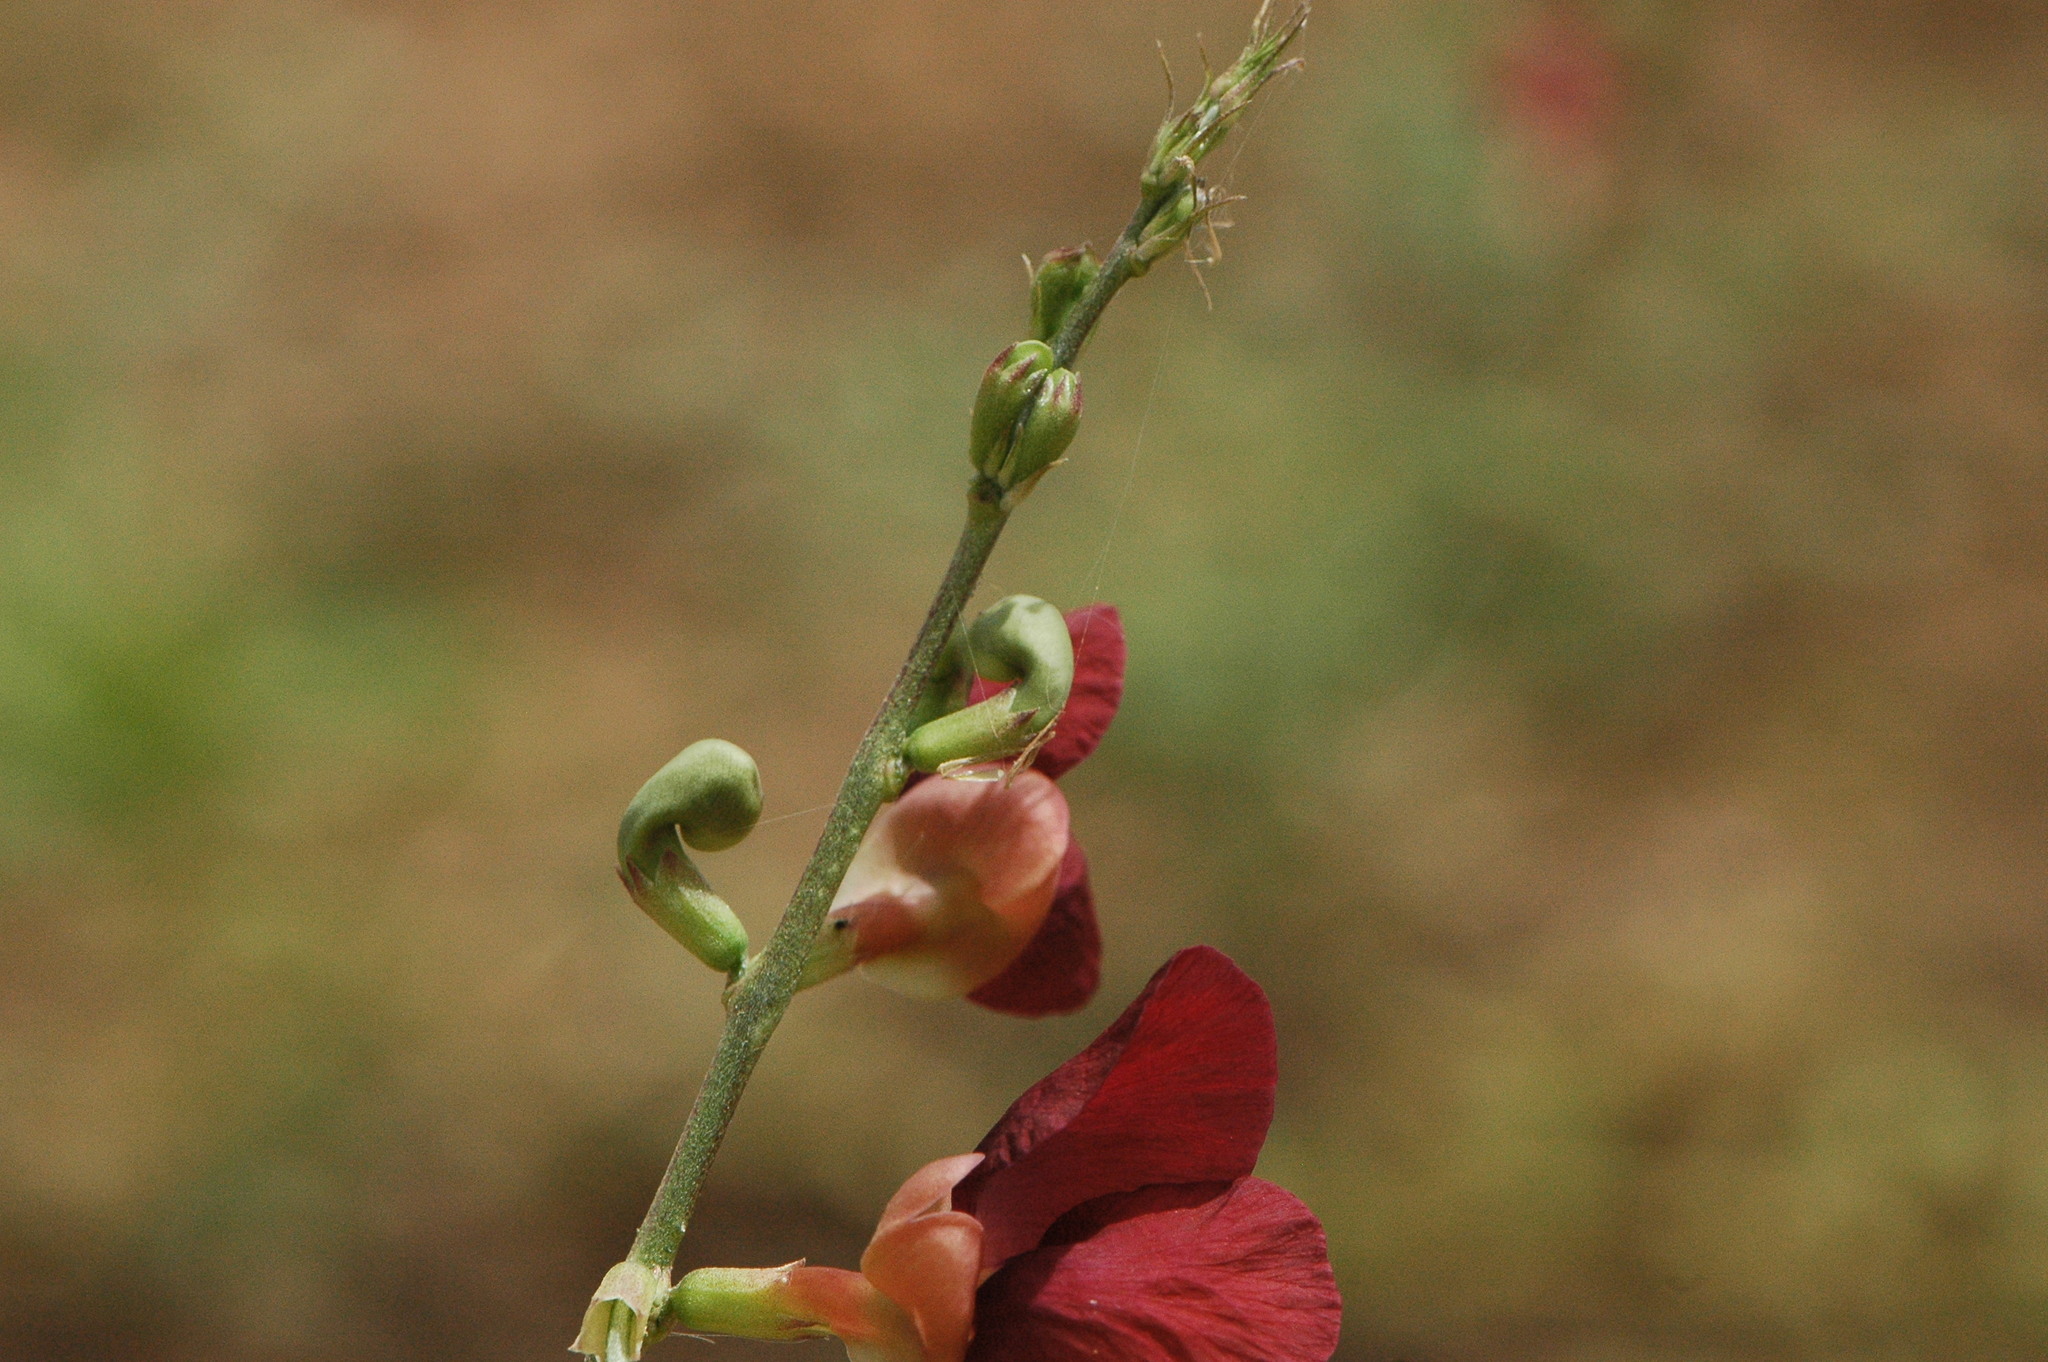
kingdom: Plantae
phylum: Tracheophyta
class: Magnoliopsida
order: Fabales
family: Fabaceae
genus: Macroptilium
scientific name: Macroptilium lathyroides
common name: Wild bushbean
